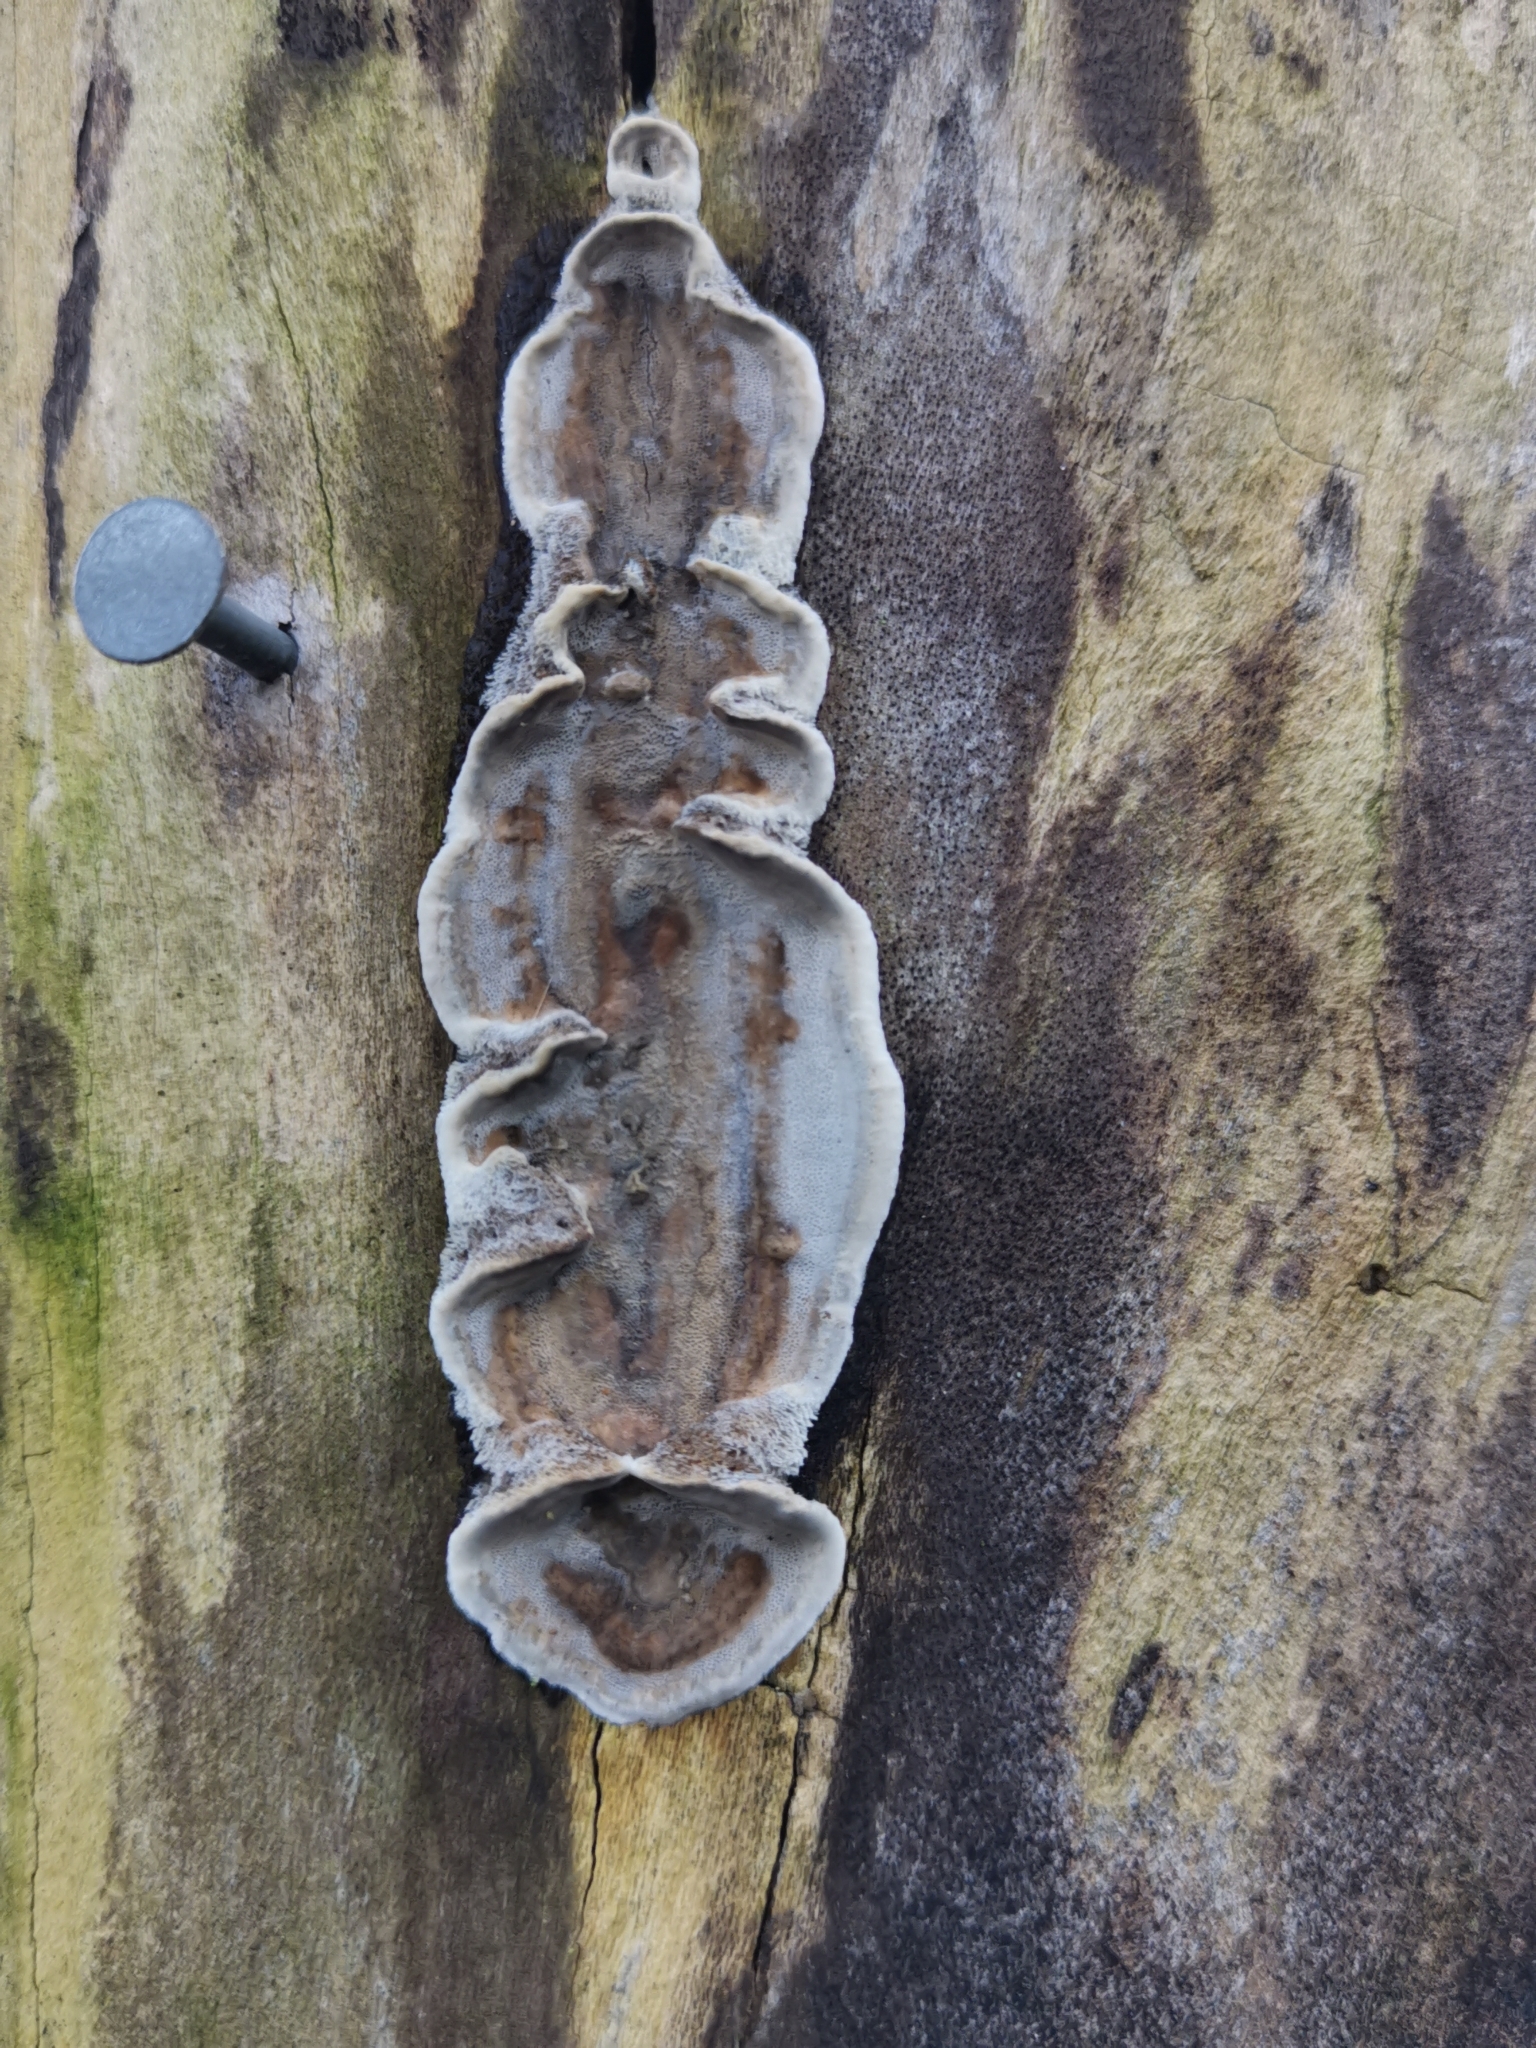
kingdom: Fungi
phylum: Basidiomycota
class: Agaricomycetes
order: Polyporales
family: Phanerochaetaceae
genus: Bjerkandera
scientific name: Bjerkandera adusta
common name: Smoky bracket
